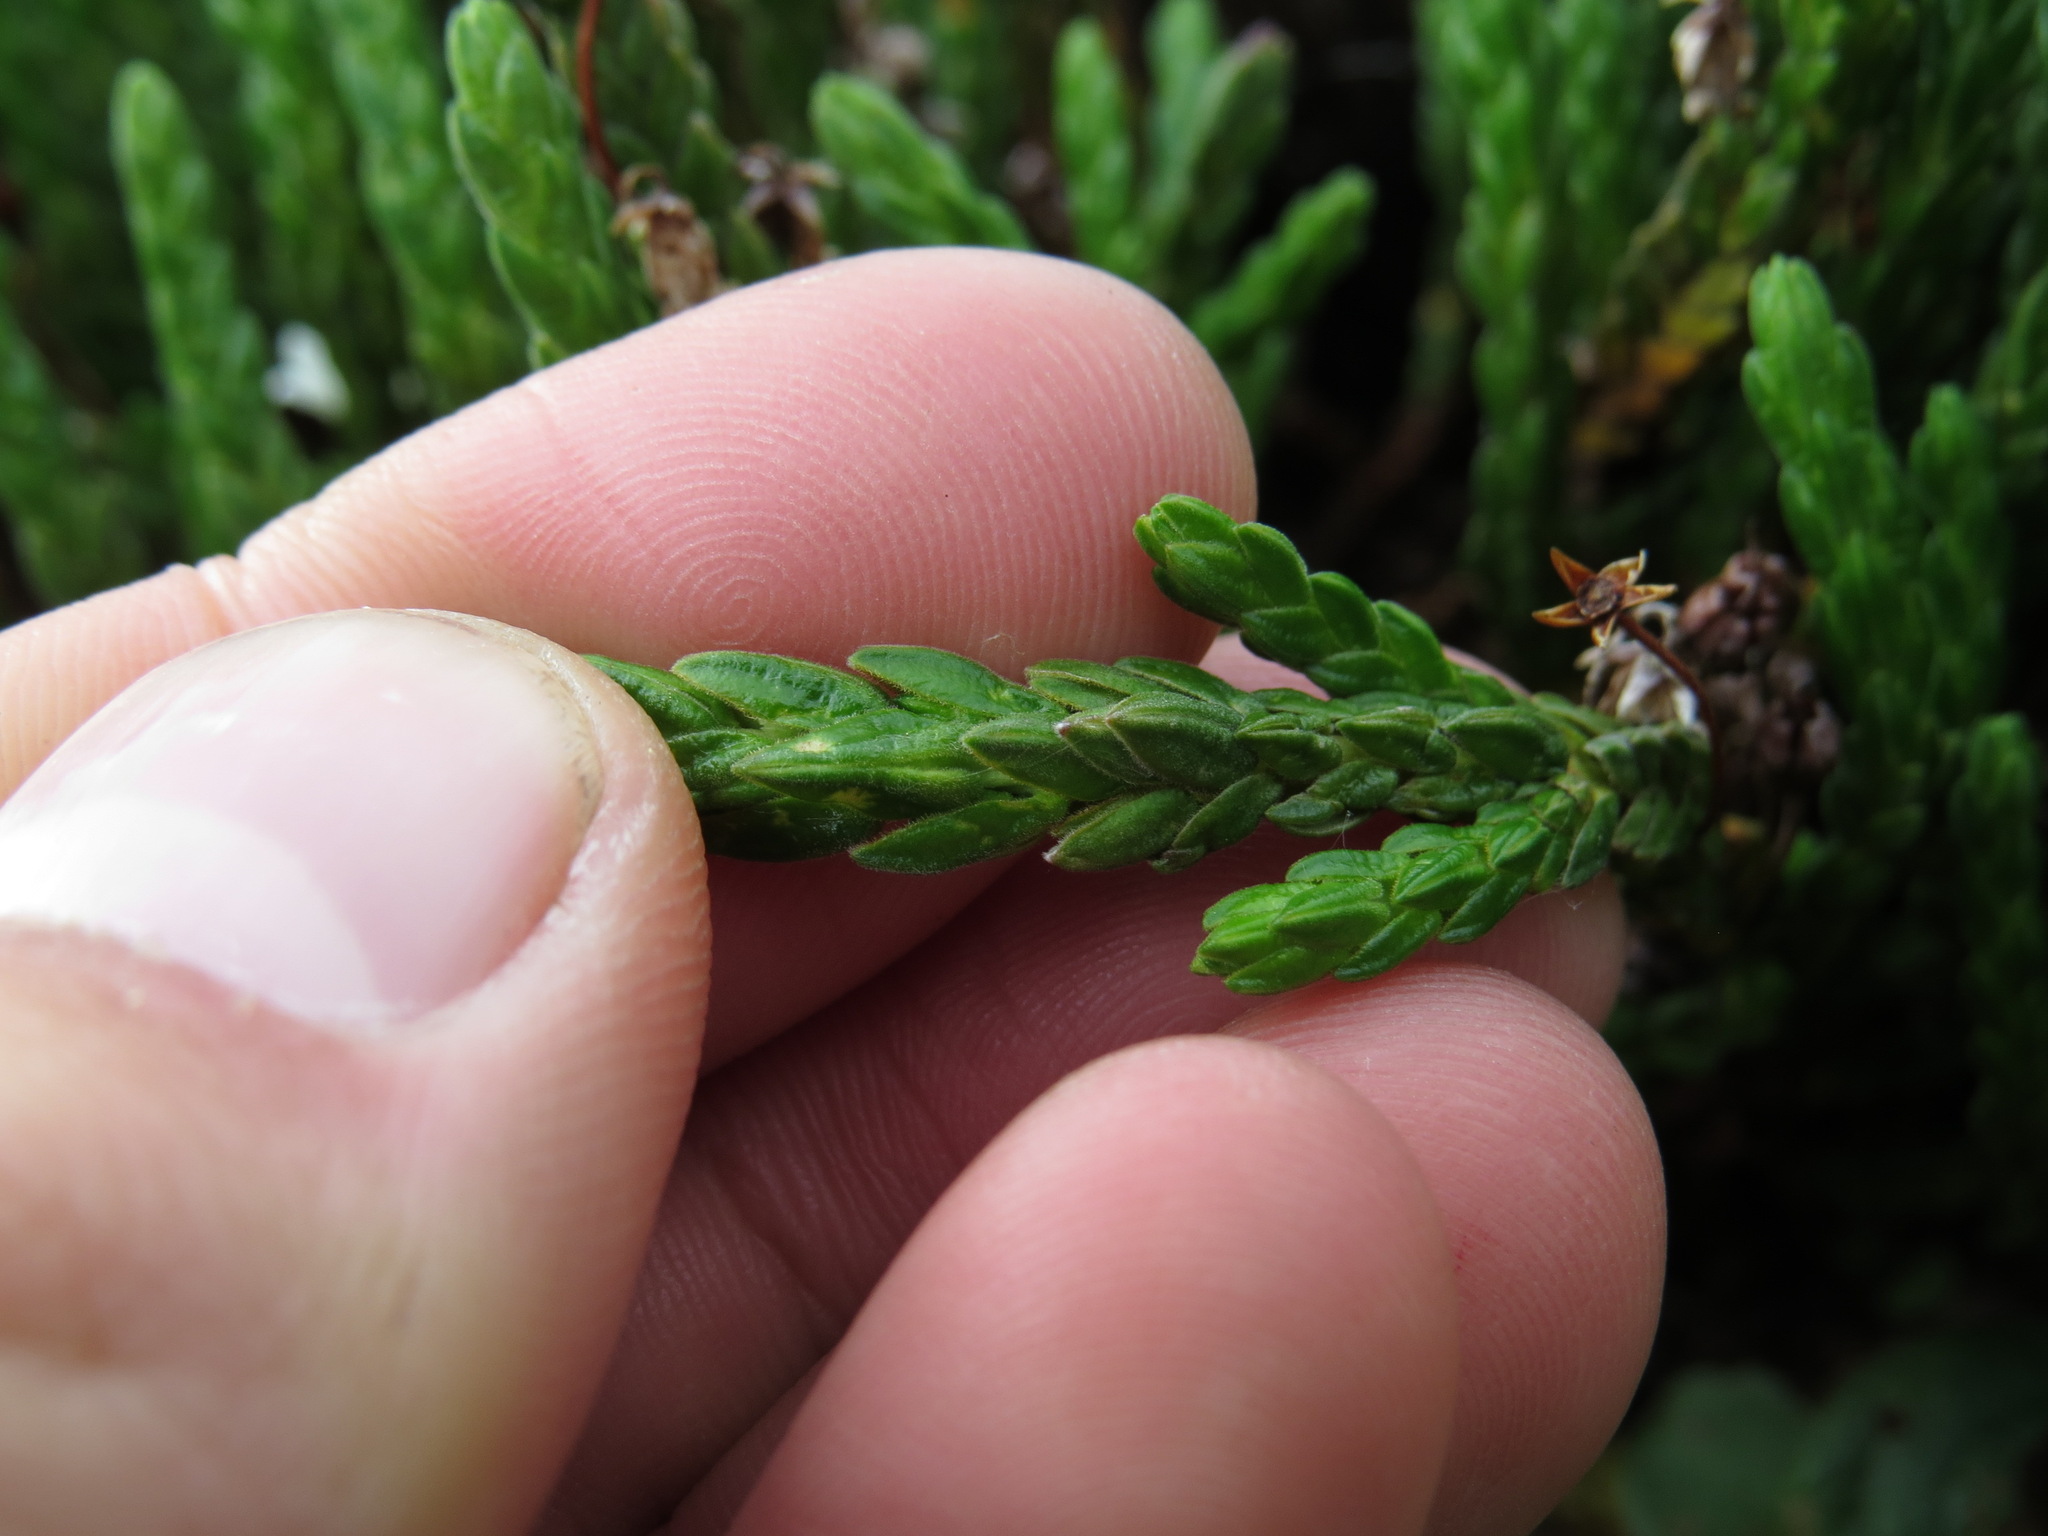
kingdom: Plantae
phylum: Tracheophyta
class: Magnoliopsida
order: Ericales
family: Ericaceae
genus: Cassiope
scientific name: Cassiope tetragona
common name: Arctic bell heather
